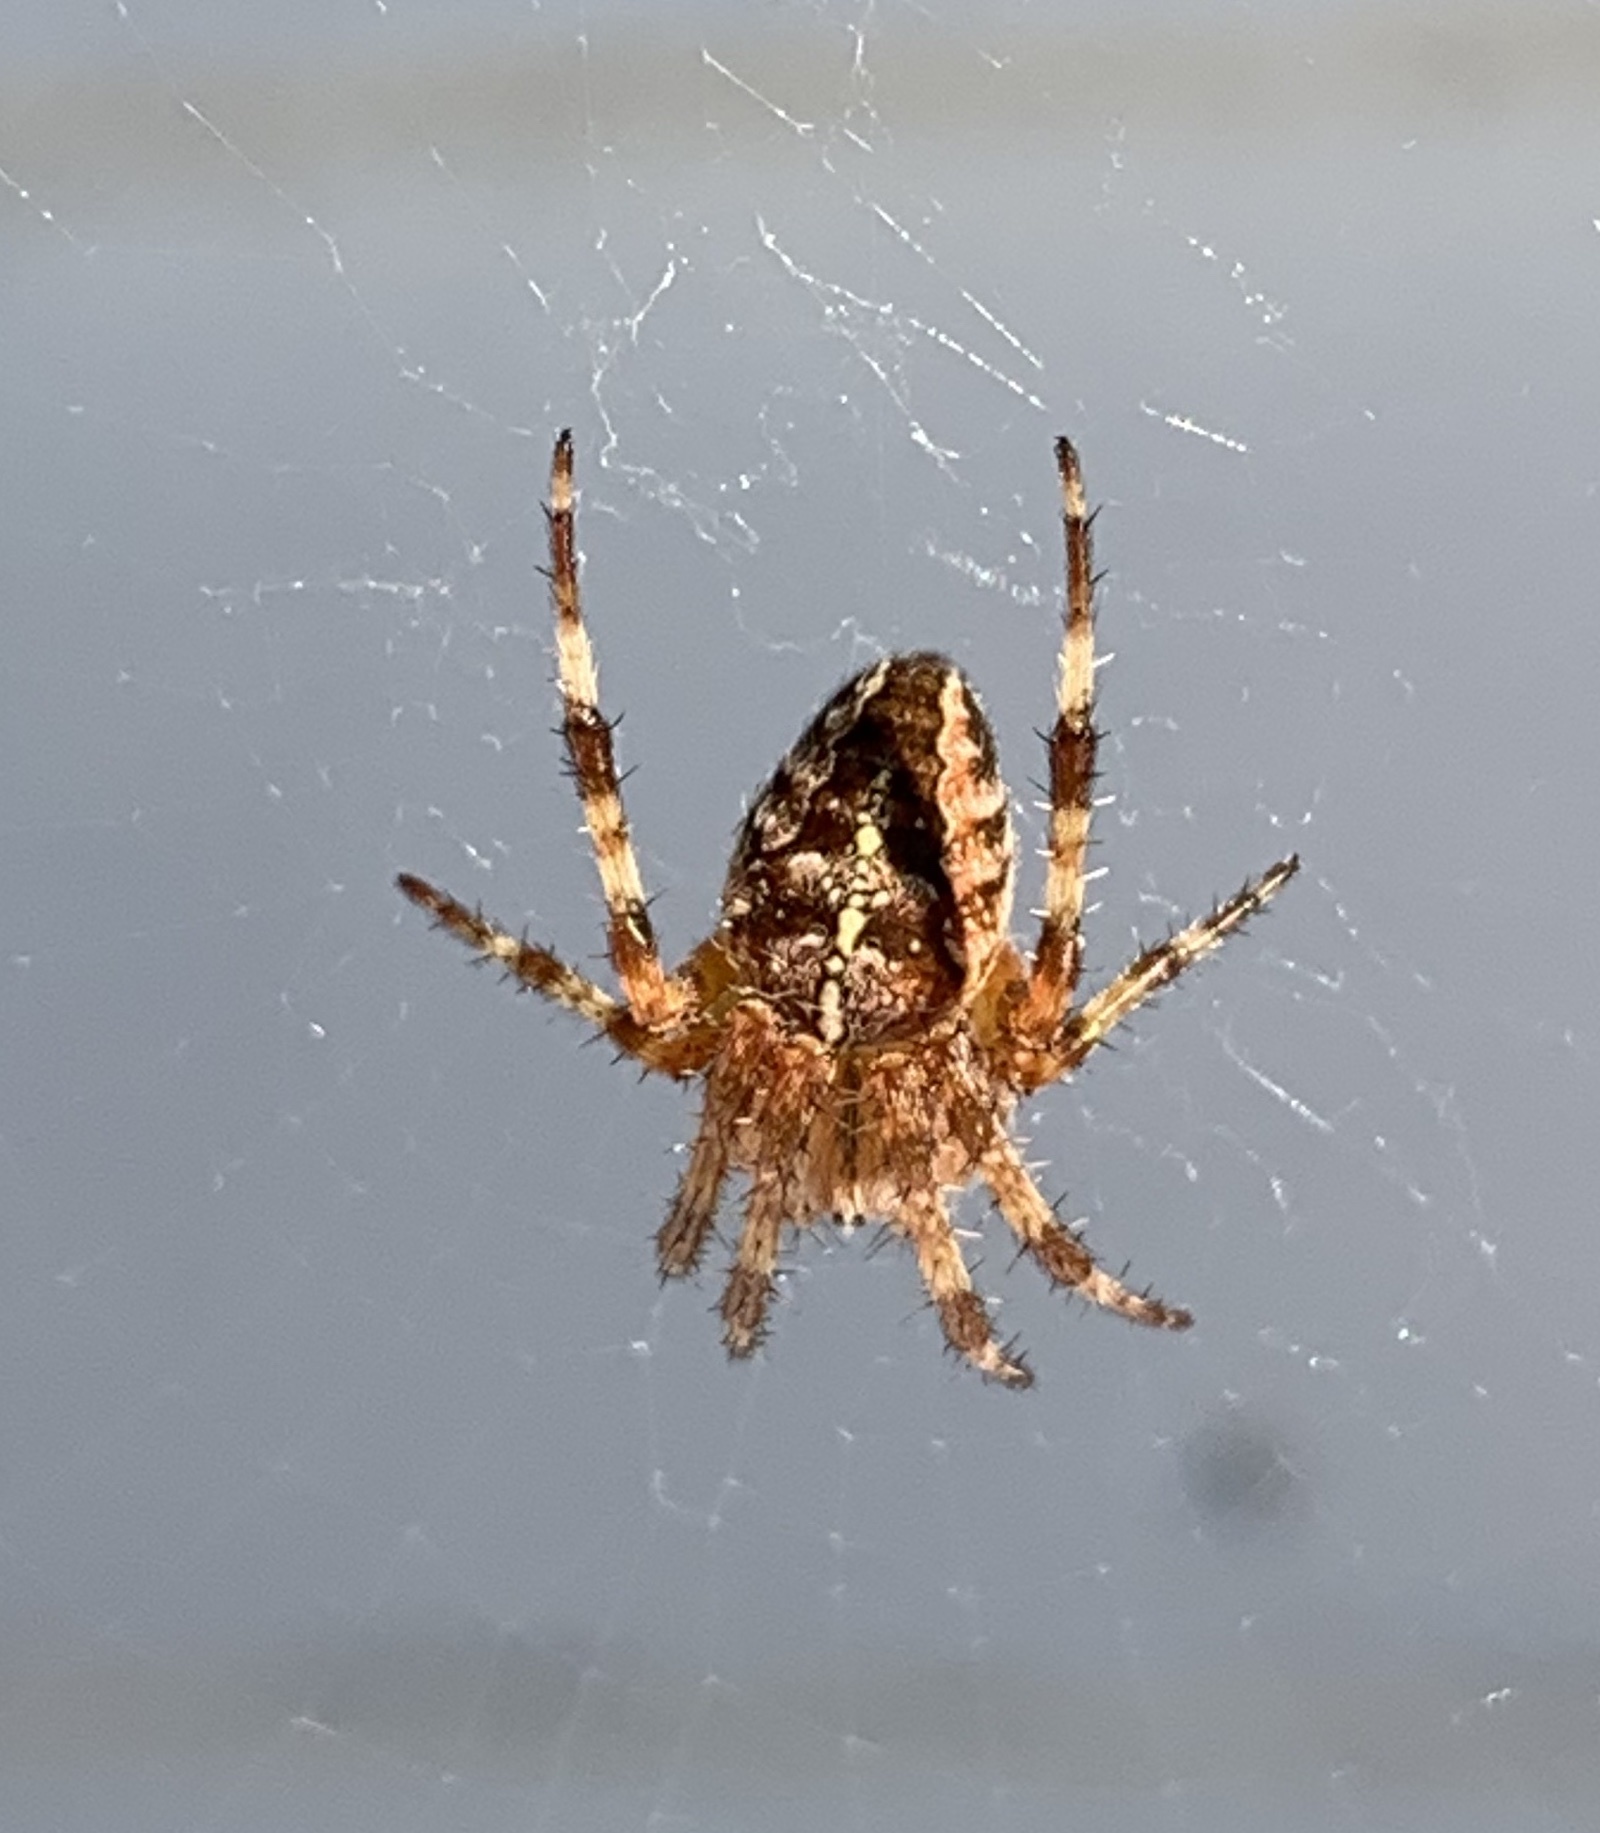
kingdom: Animalia
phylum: Arthropoda
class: Arachnida
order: Araneae
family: Araneidae
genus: Araneus
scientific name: Araneus diadematus
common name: Cross orbweaver
